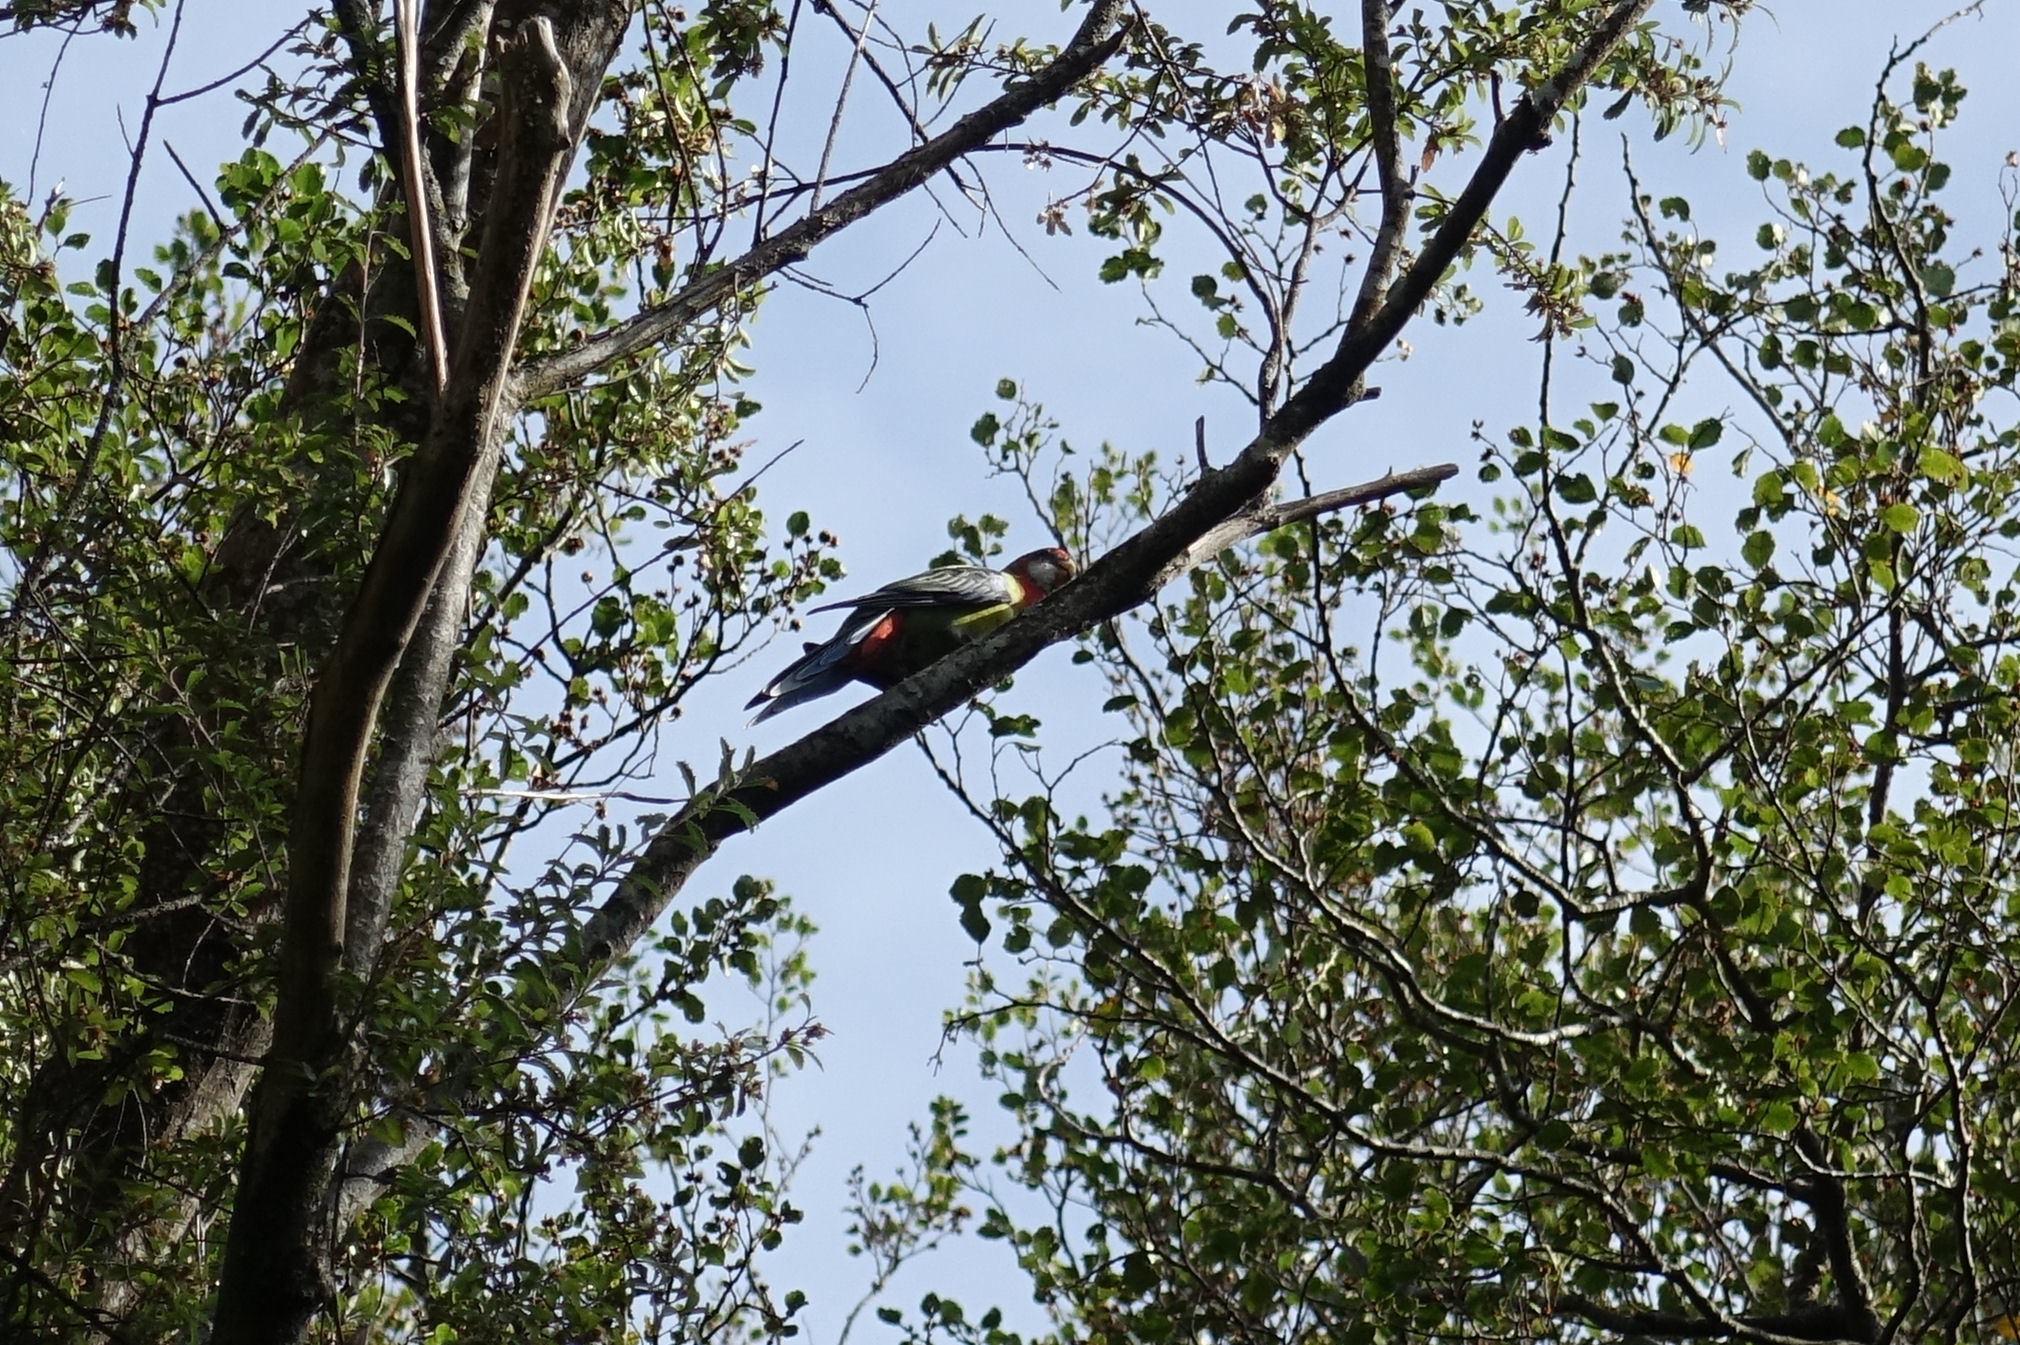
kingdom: Animalia
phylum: Chordata
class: Aves
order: Psittaciformes
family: Psittacidae
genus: Platycercus
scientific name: Platycercus eximius
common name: Eastern rosella
